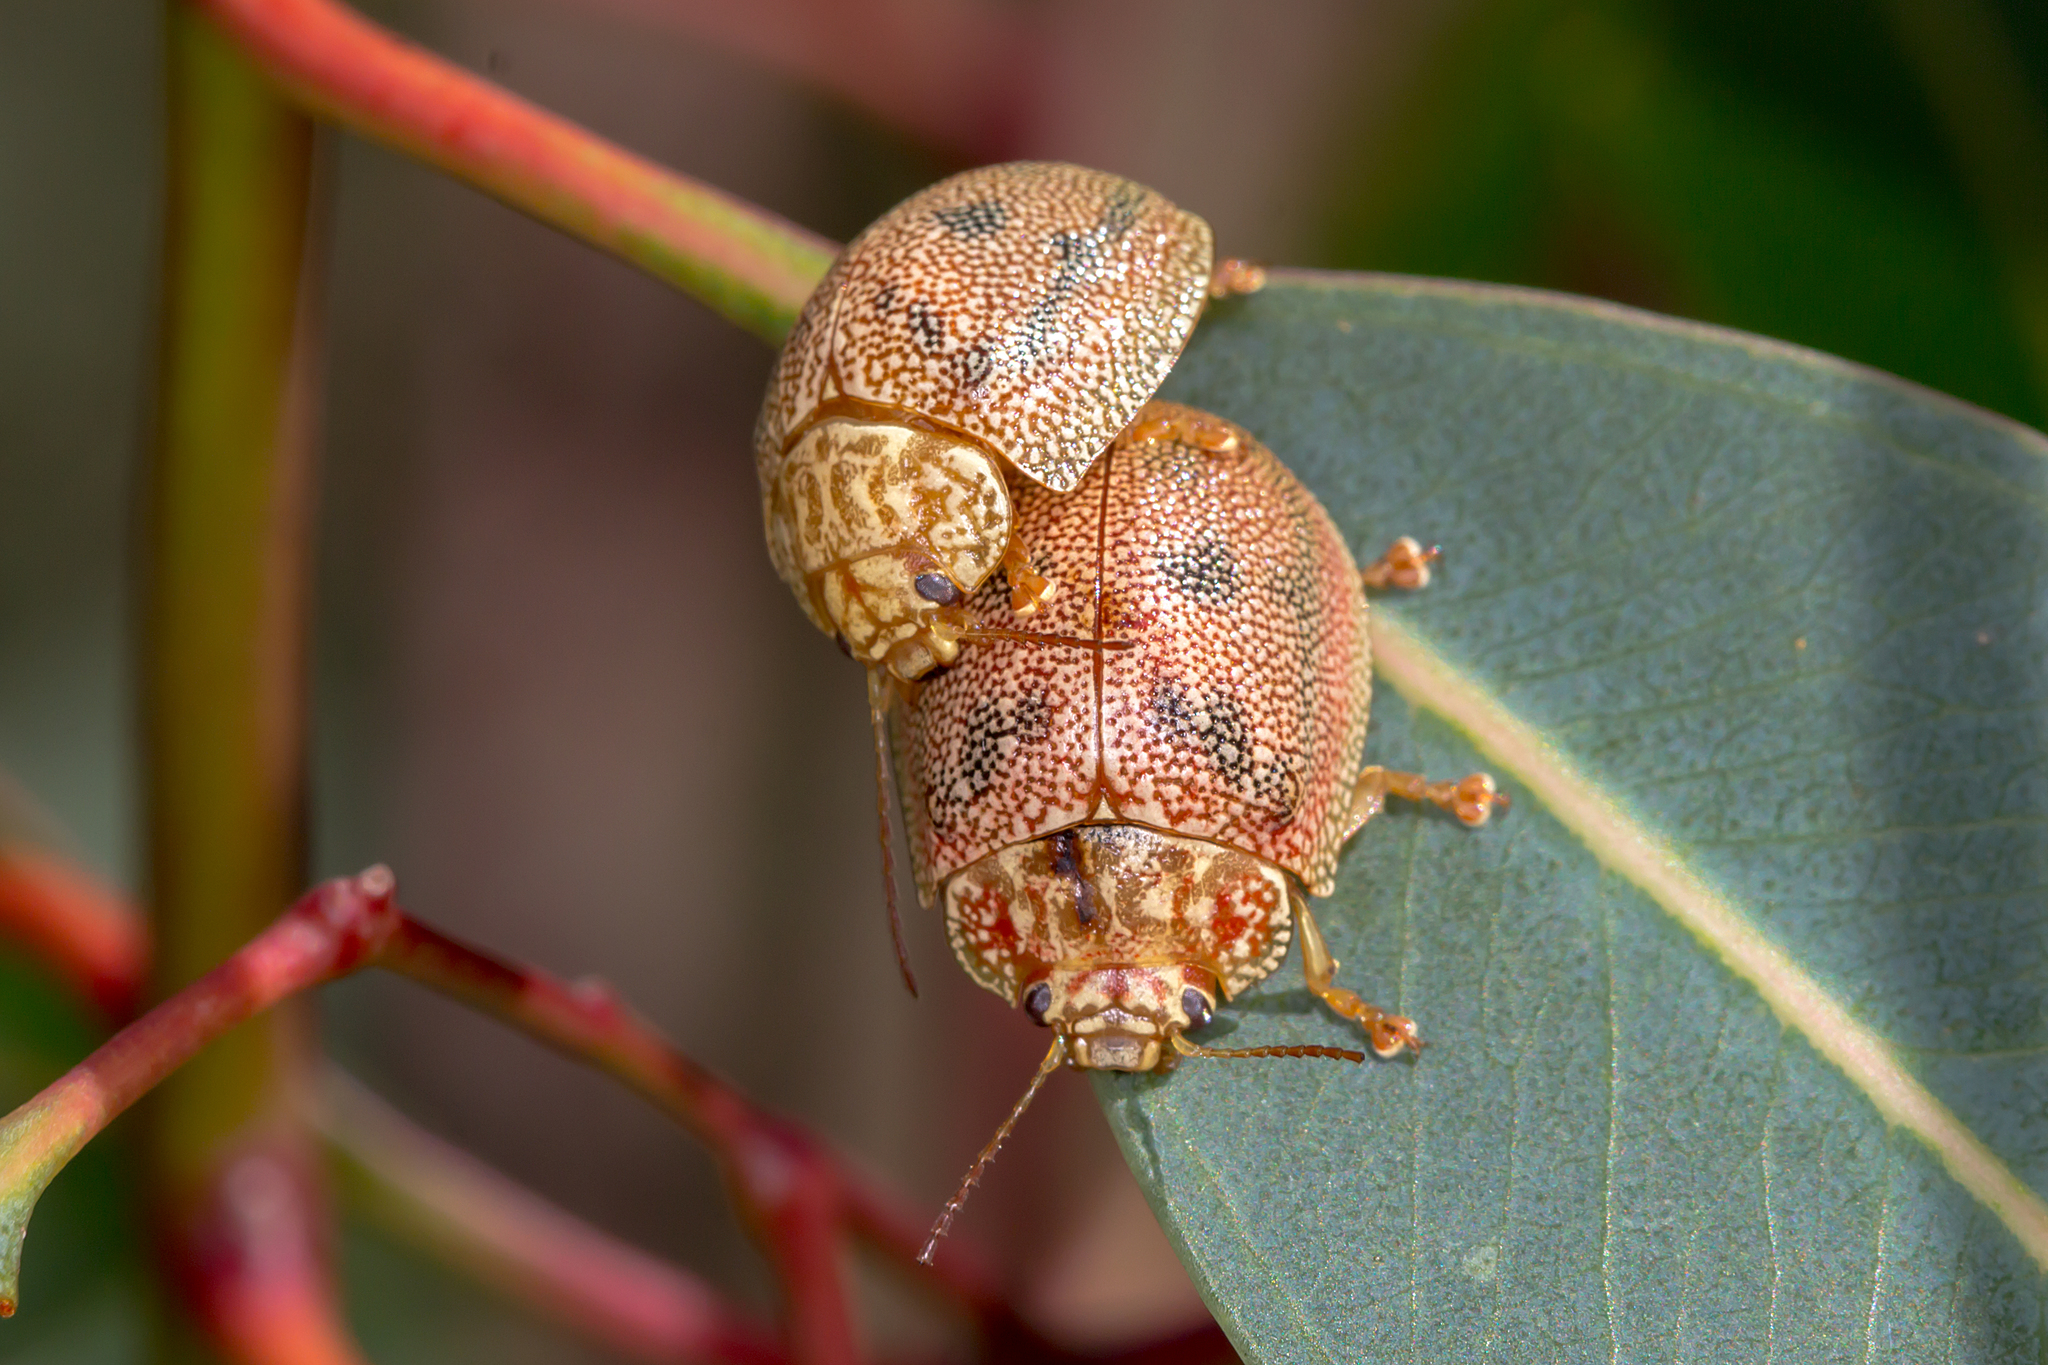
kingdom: Animalia
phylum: Arthropoda
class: Insecta
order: Coleoptera
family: Chrysomelidae
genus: Paropsis
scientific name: Paropsis
